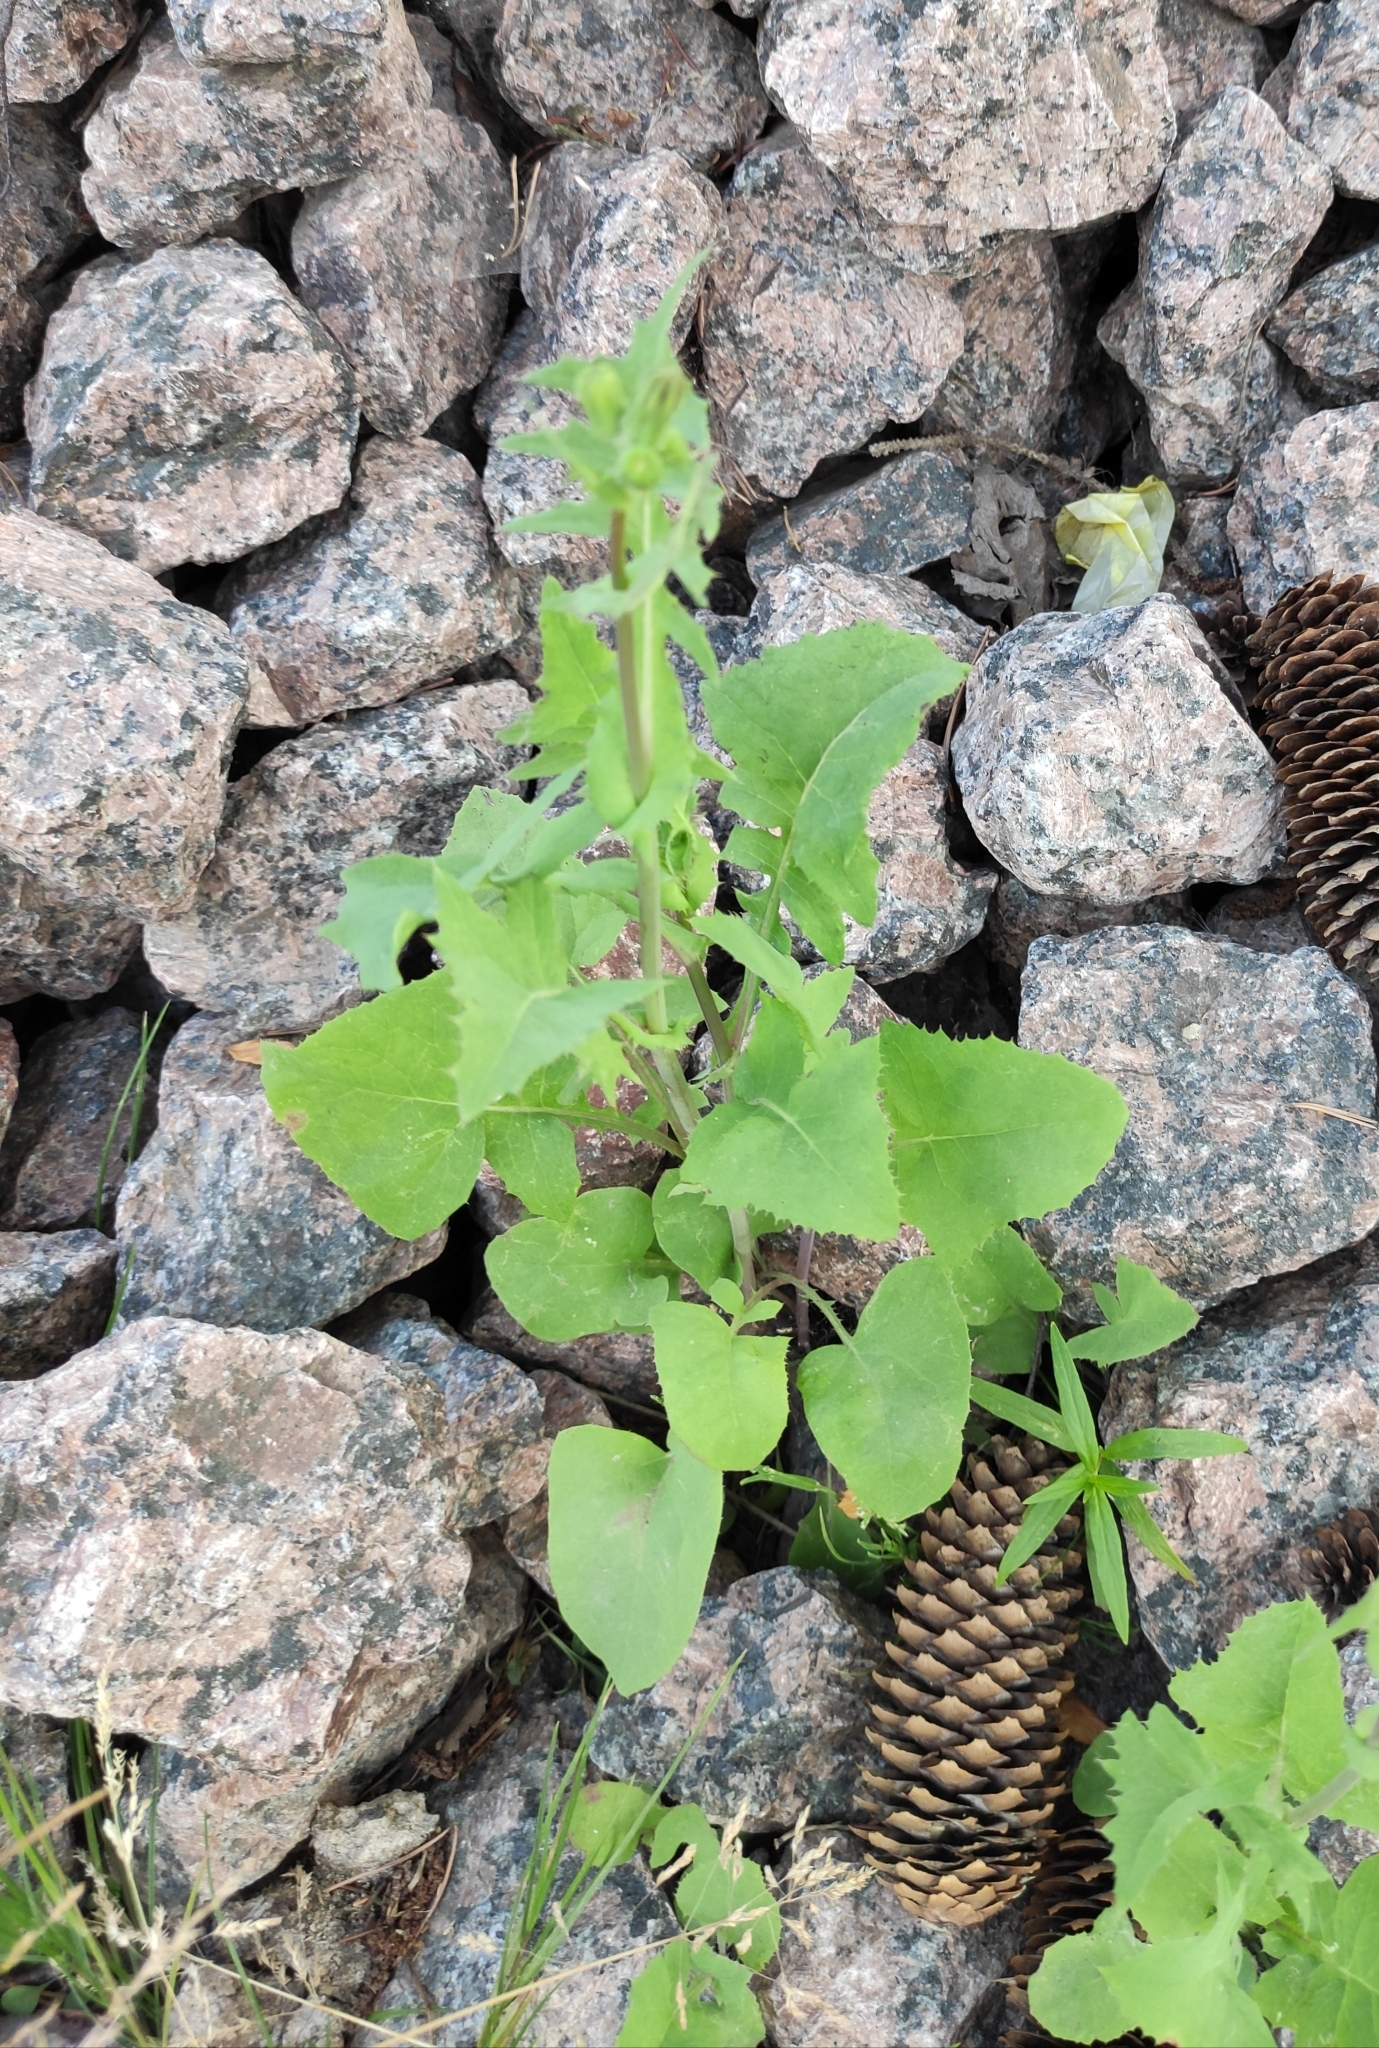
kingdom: Plantae
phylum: Tracheophyta
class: Magnoliopsida
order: Asterales
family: Asteraceae
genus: Sonchus
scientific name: Sonchus oleraceus
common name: Common sowthistle
